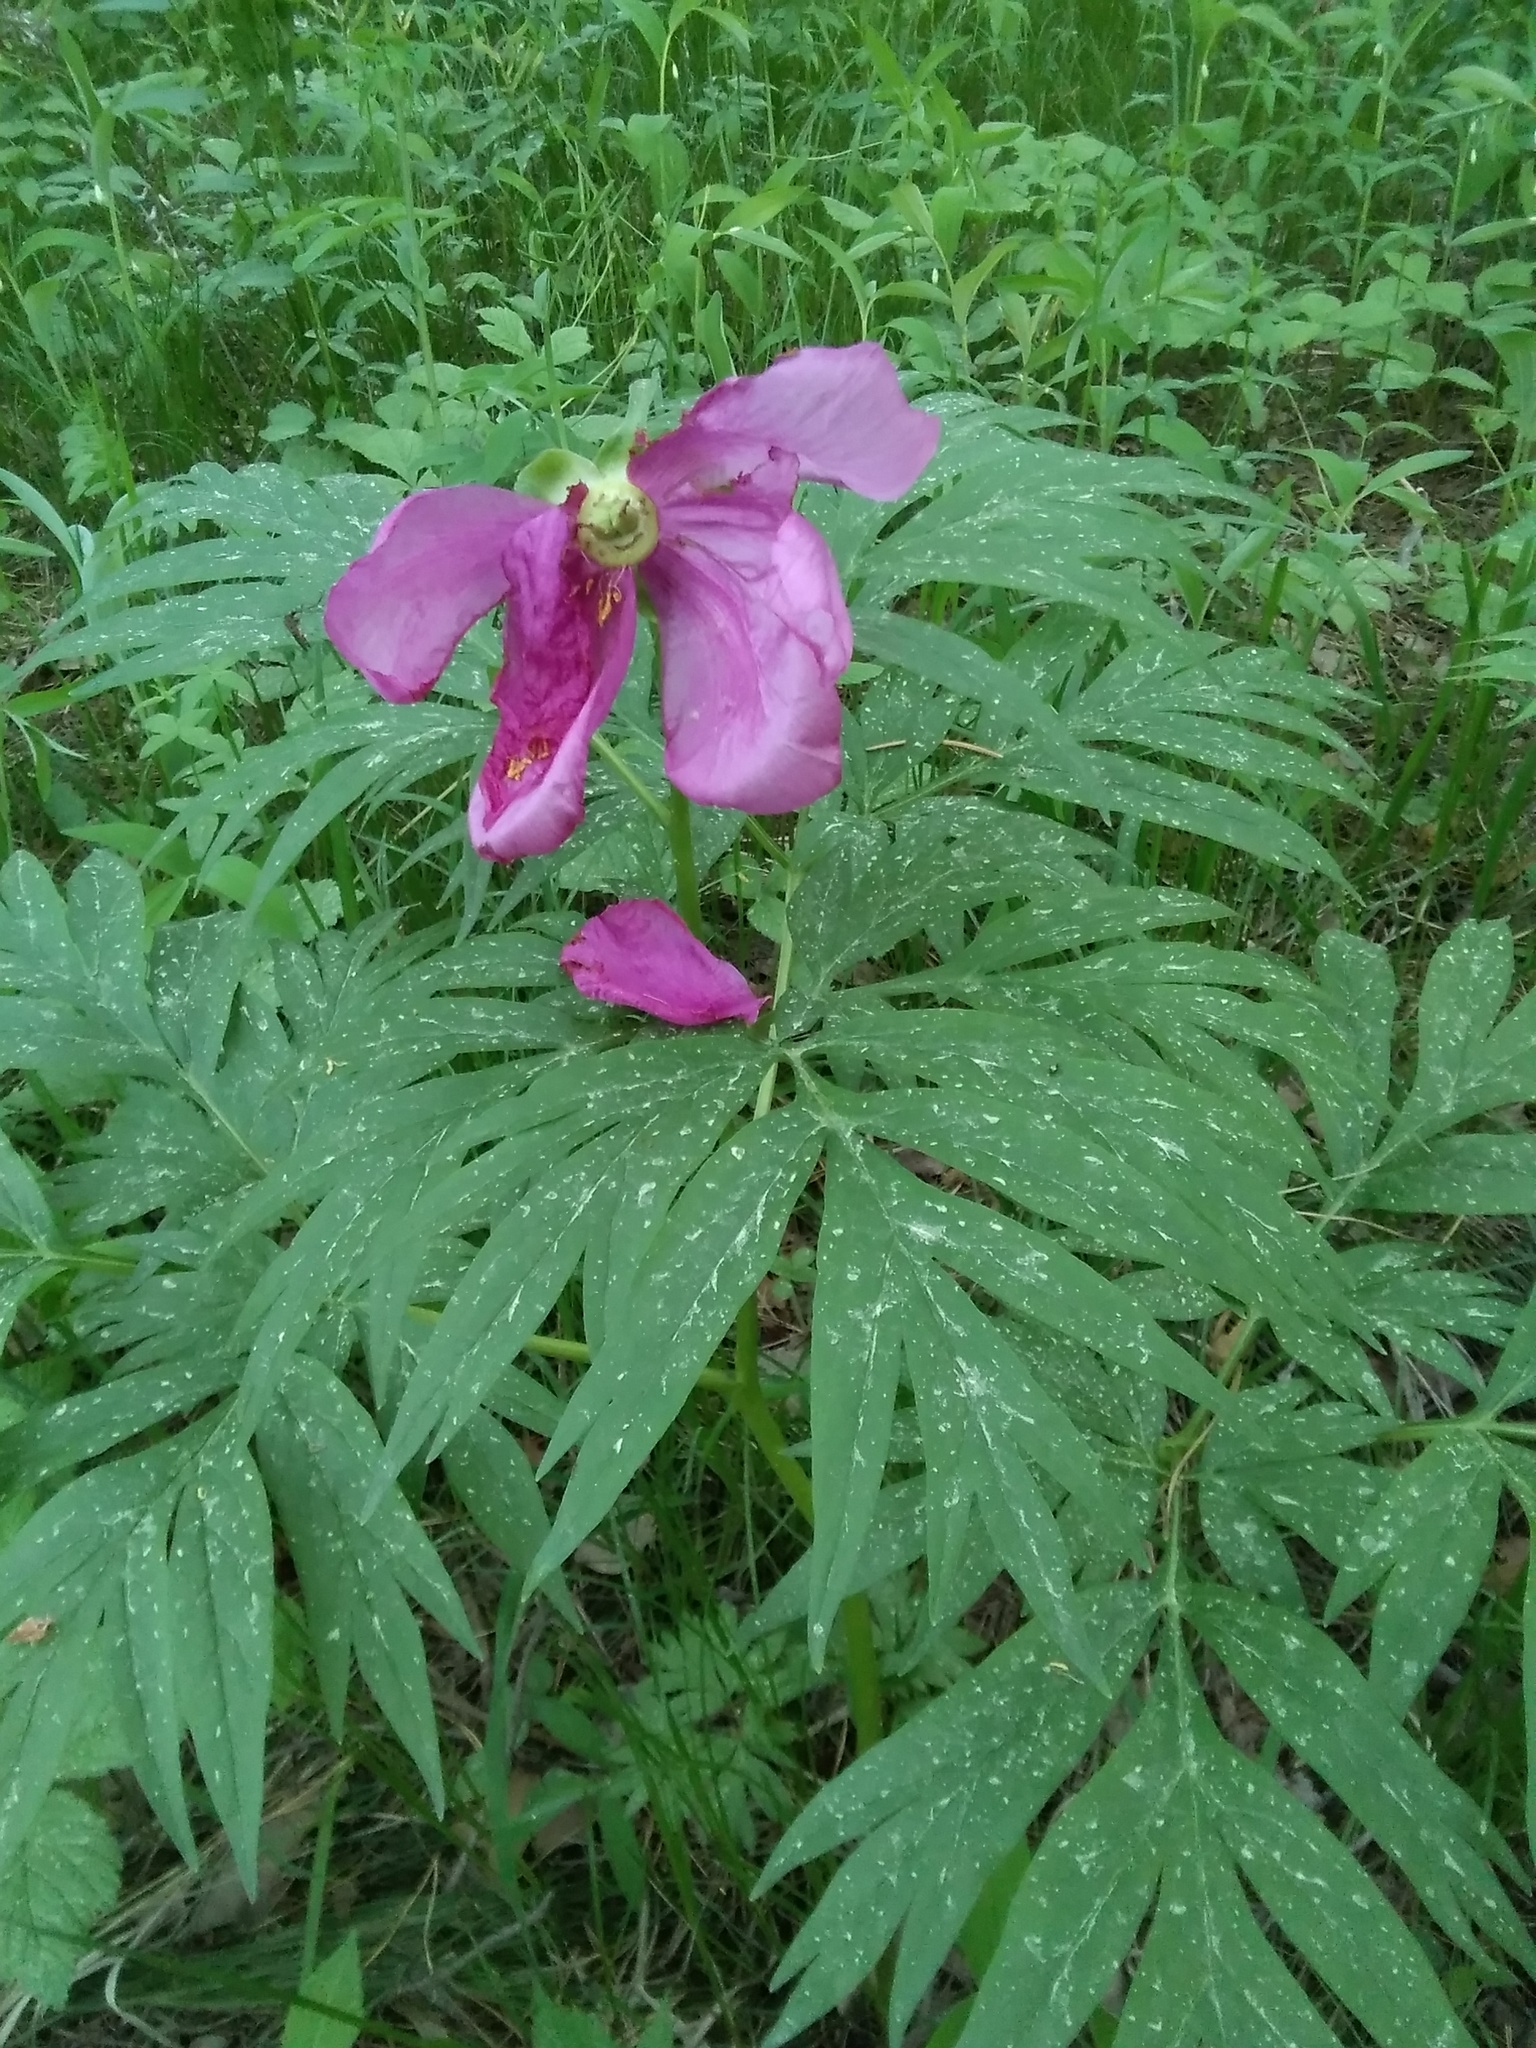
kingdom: Plantae
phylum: Tracheophyta
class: Magnoliopsida
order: Saxifragales
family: Paeoniaceae
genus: Paeonia
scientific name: Paeonia anomala
